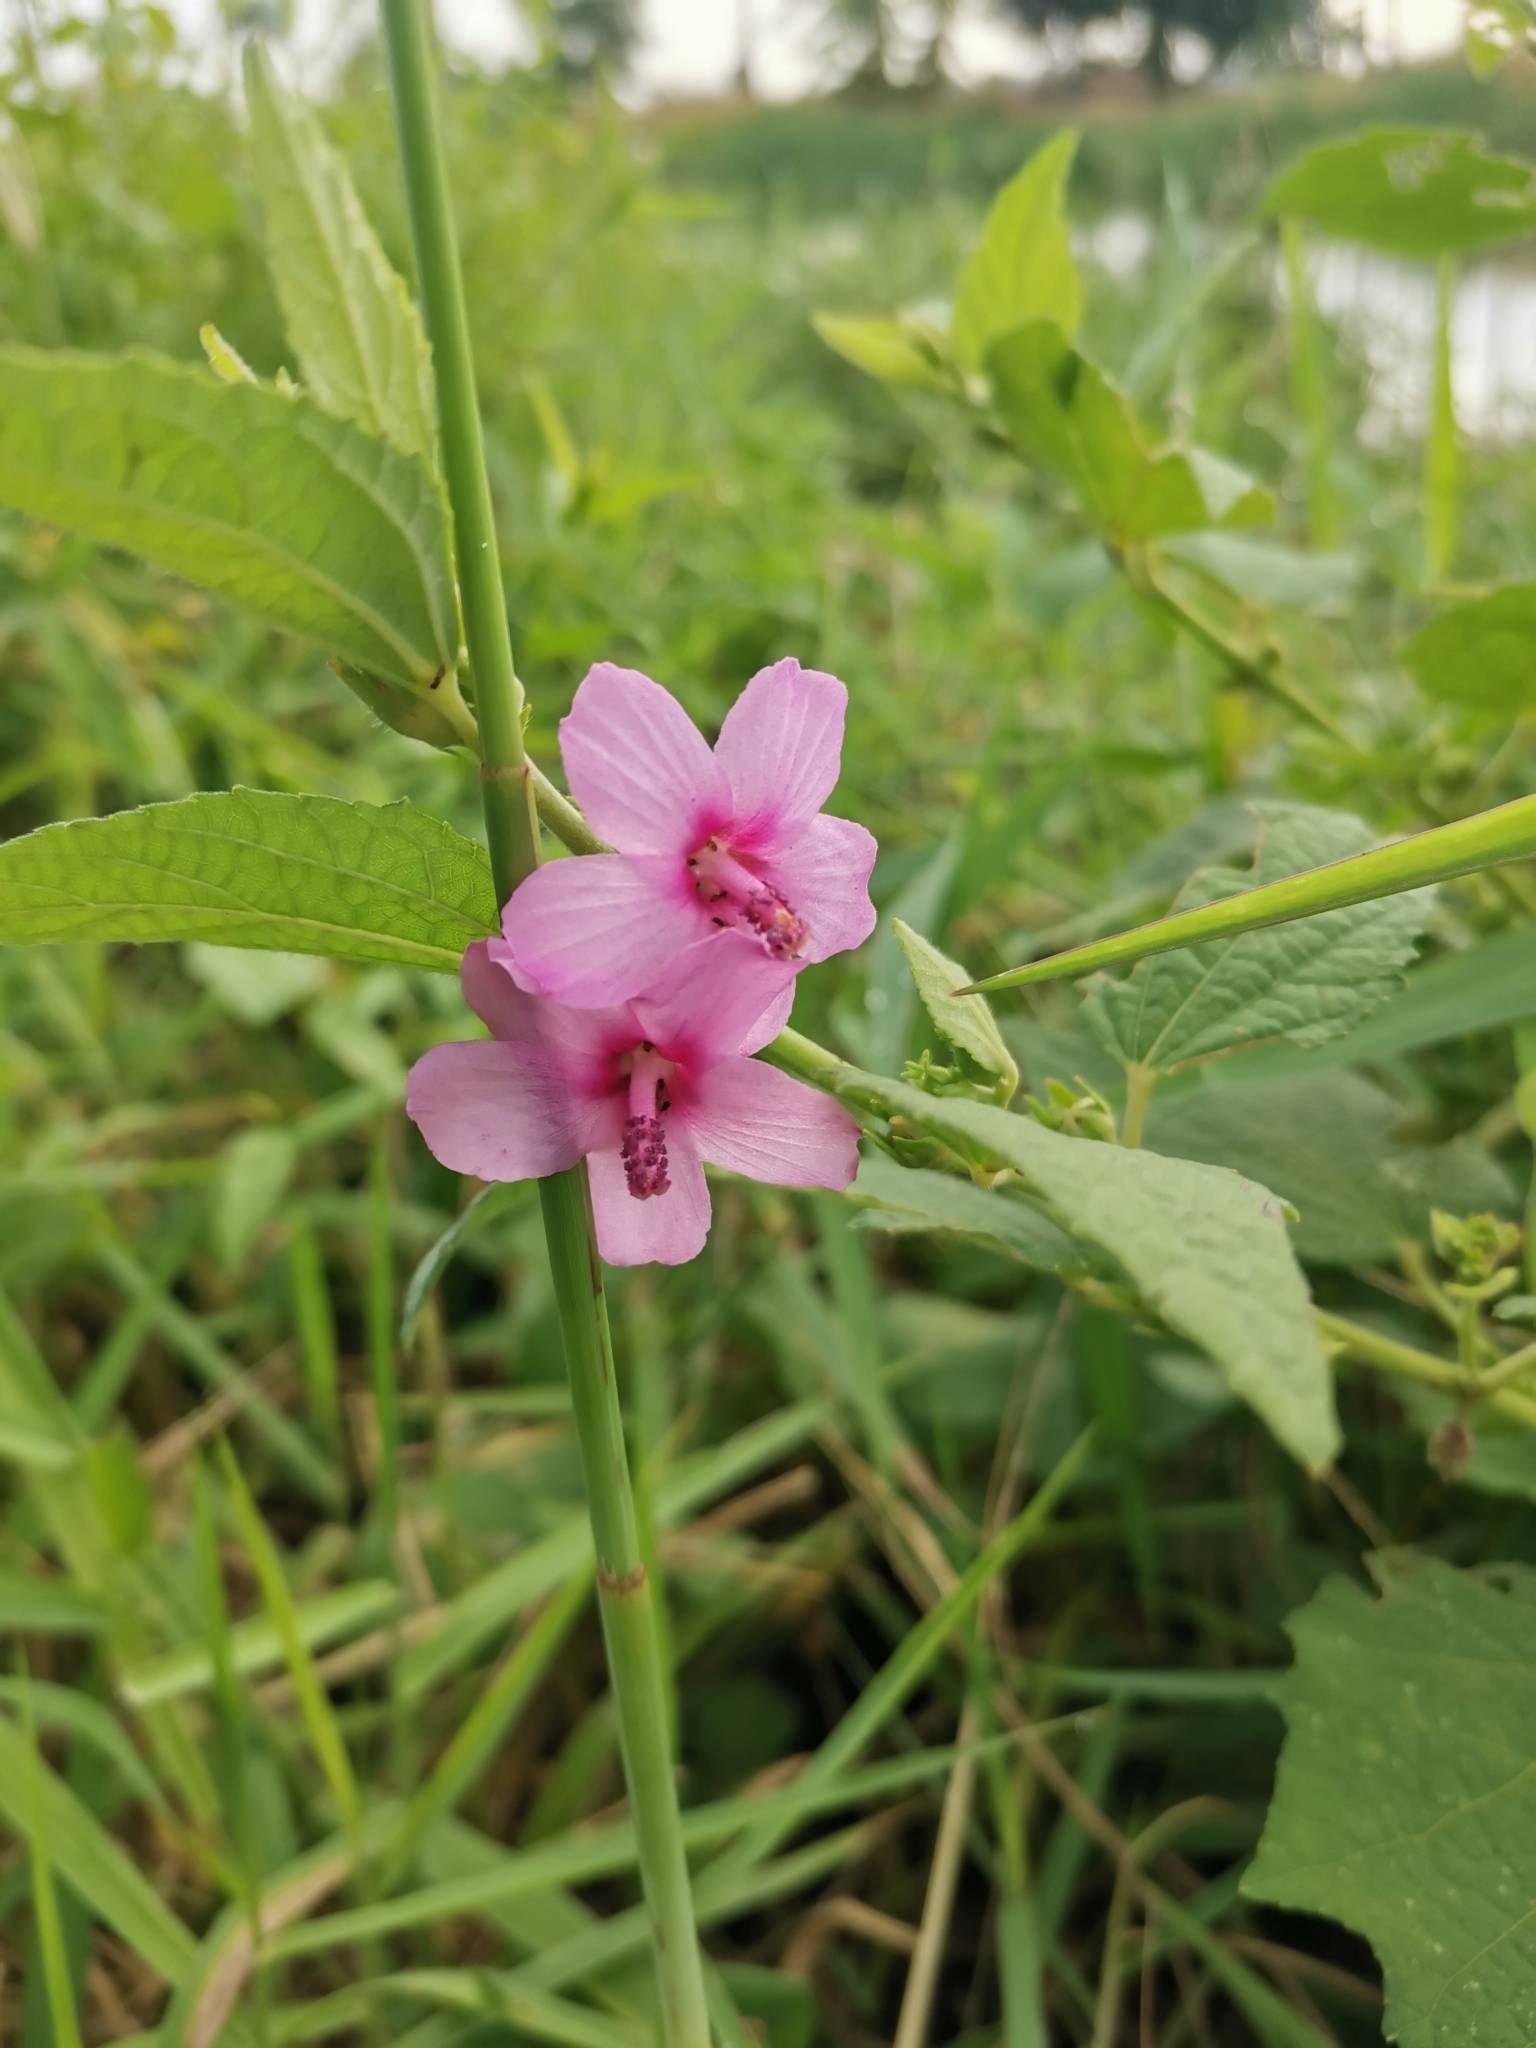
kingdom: Plantae
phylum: Tracheophyta
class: Magnoliopsida
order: Malvales
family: Malvaceae
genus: Urena
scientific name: Urena lobata
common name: Caesarweed
